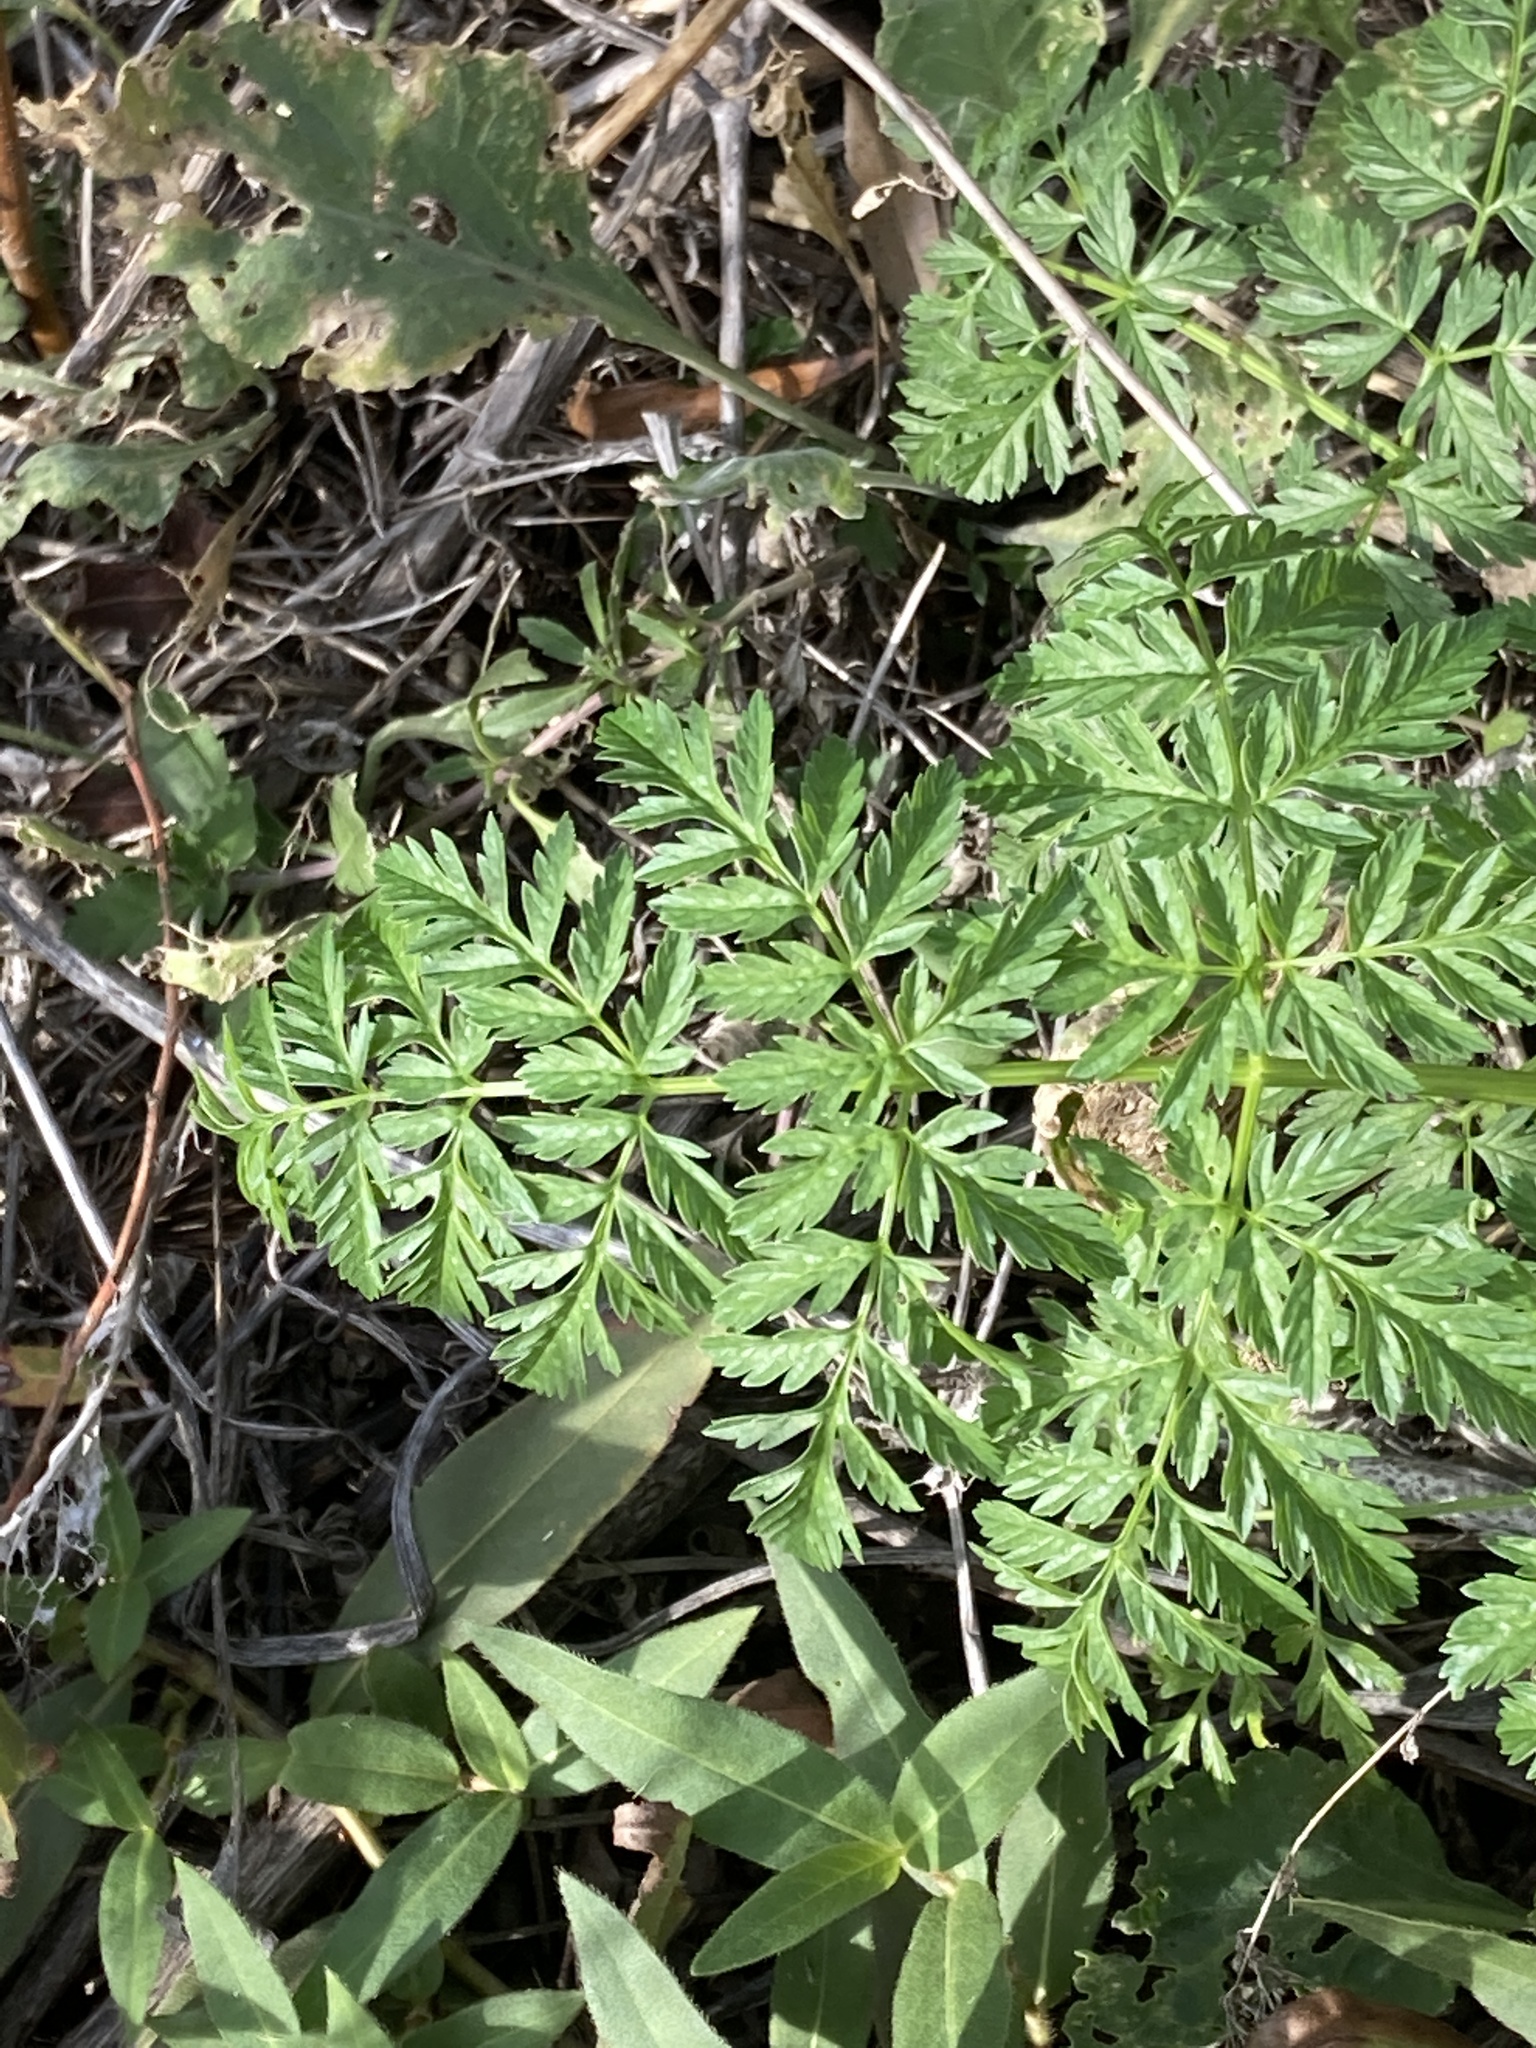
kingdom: Plantae
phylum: Tracheophyta
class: Magnoliopsida
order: Apiales
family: Apiaceae
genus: Conium
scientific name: Conium maculatum
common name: Hemlock
